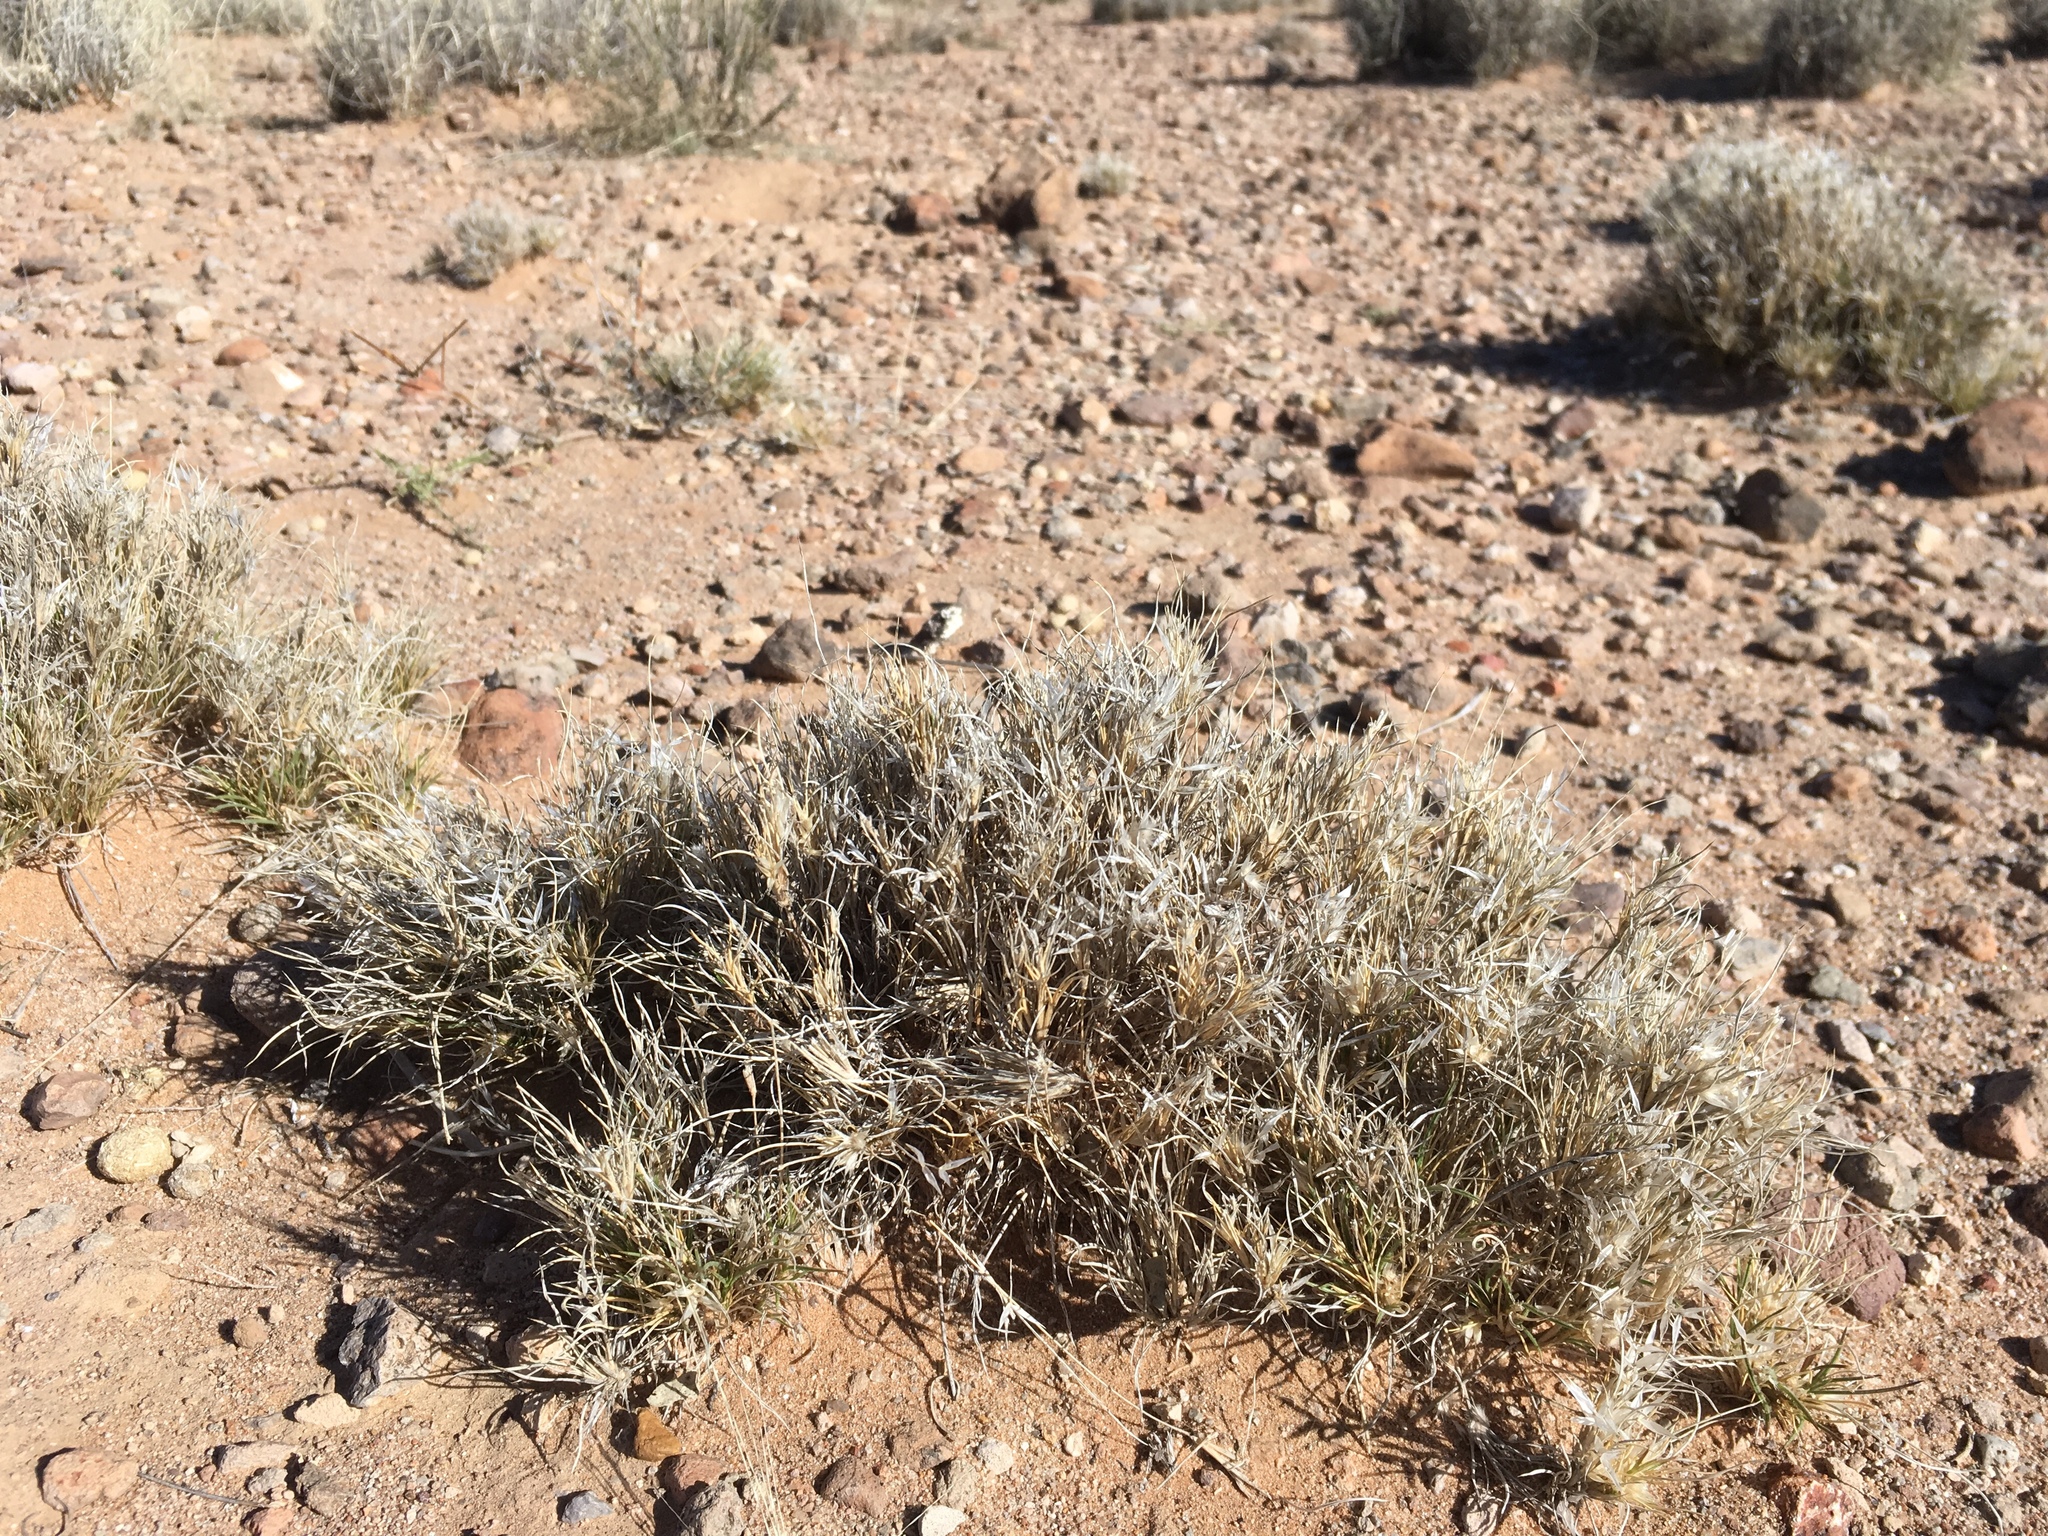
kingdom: Plantae
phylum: Tracheophyta
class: Liliopsida
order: Poales
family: Poaceae
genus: Dasyochloa
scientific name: Dasyochloa pulchella
